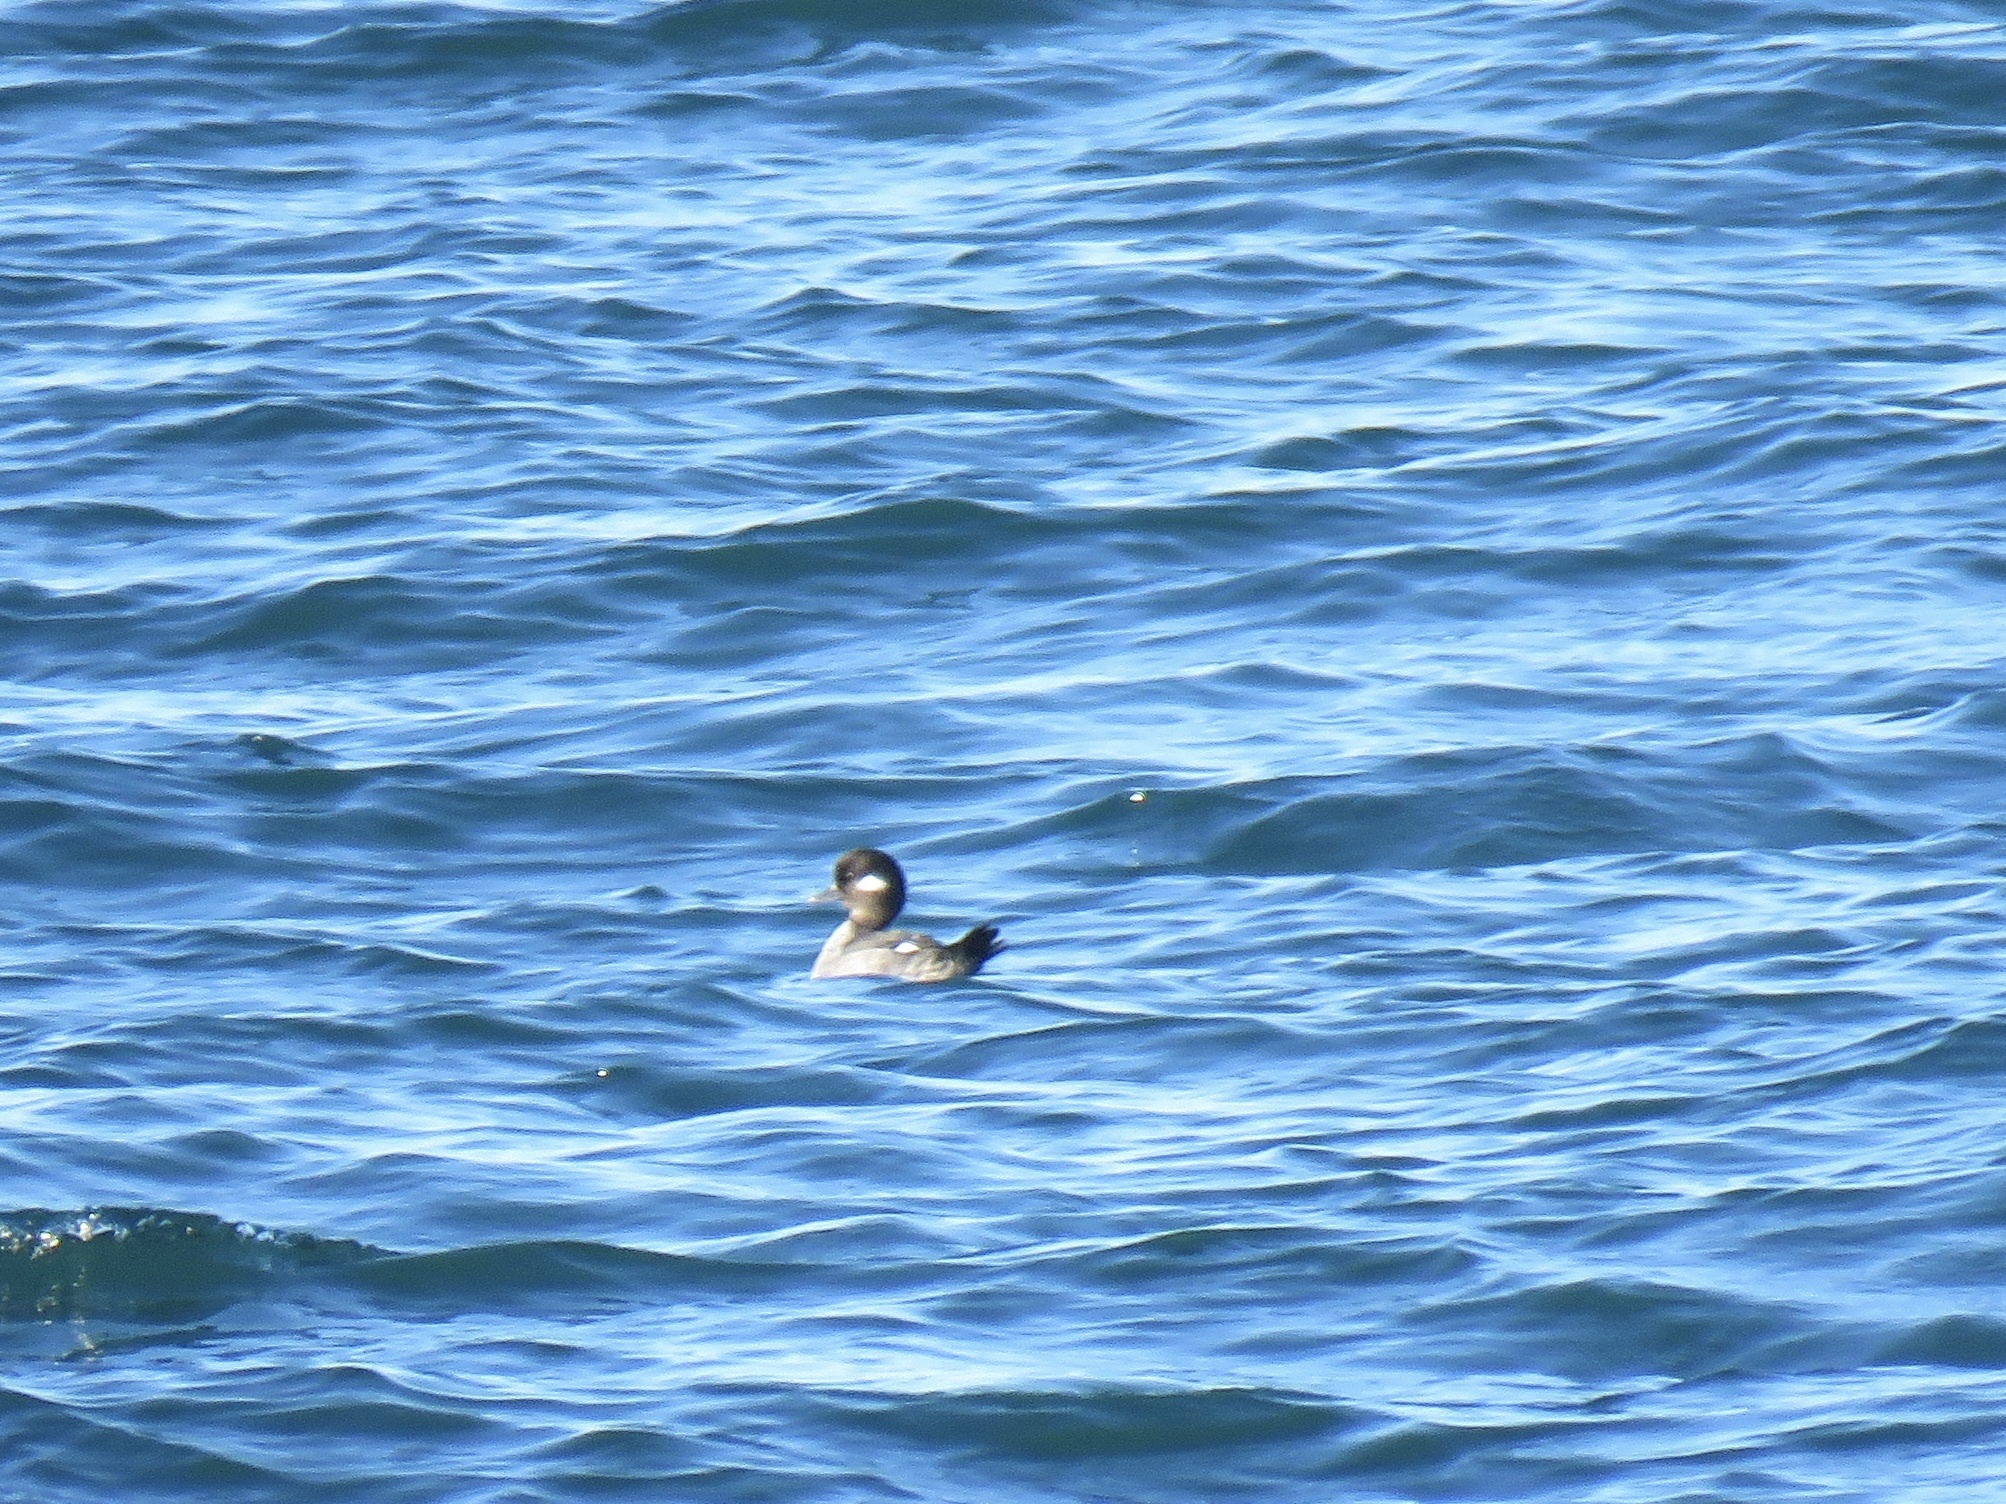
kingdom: Animalia
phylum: Chordata
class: Aves
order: Anseriformes
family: Anatidae
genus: Bucephala
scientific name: Bucephala albeola
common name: Bufflehead
